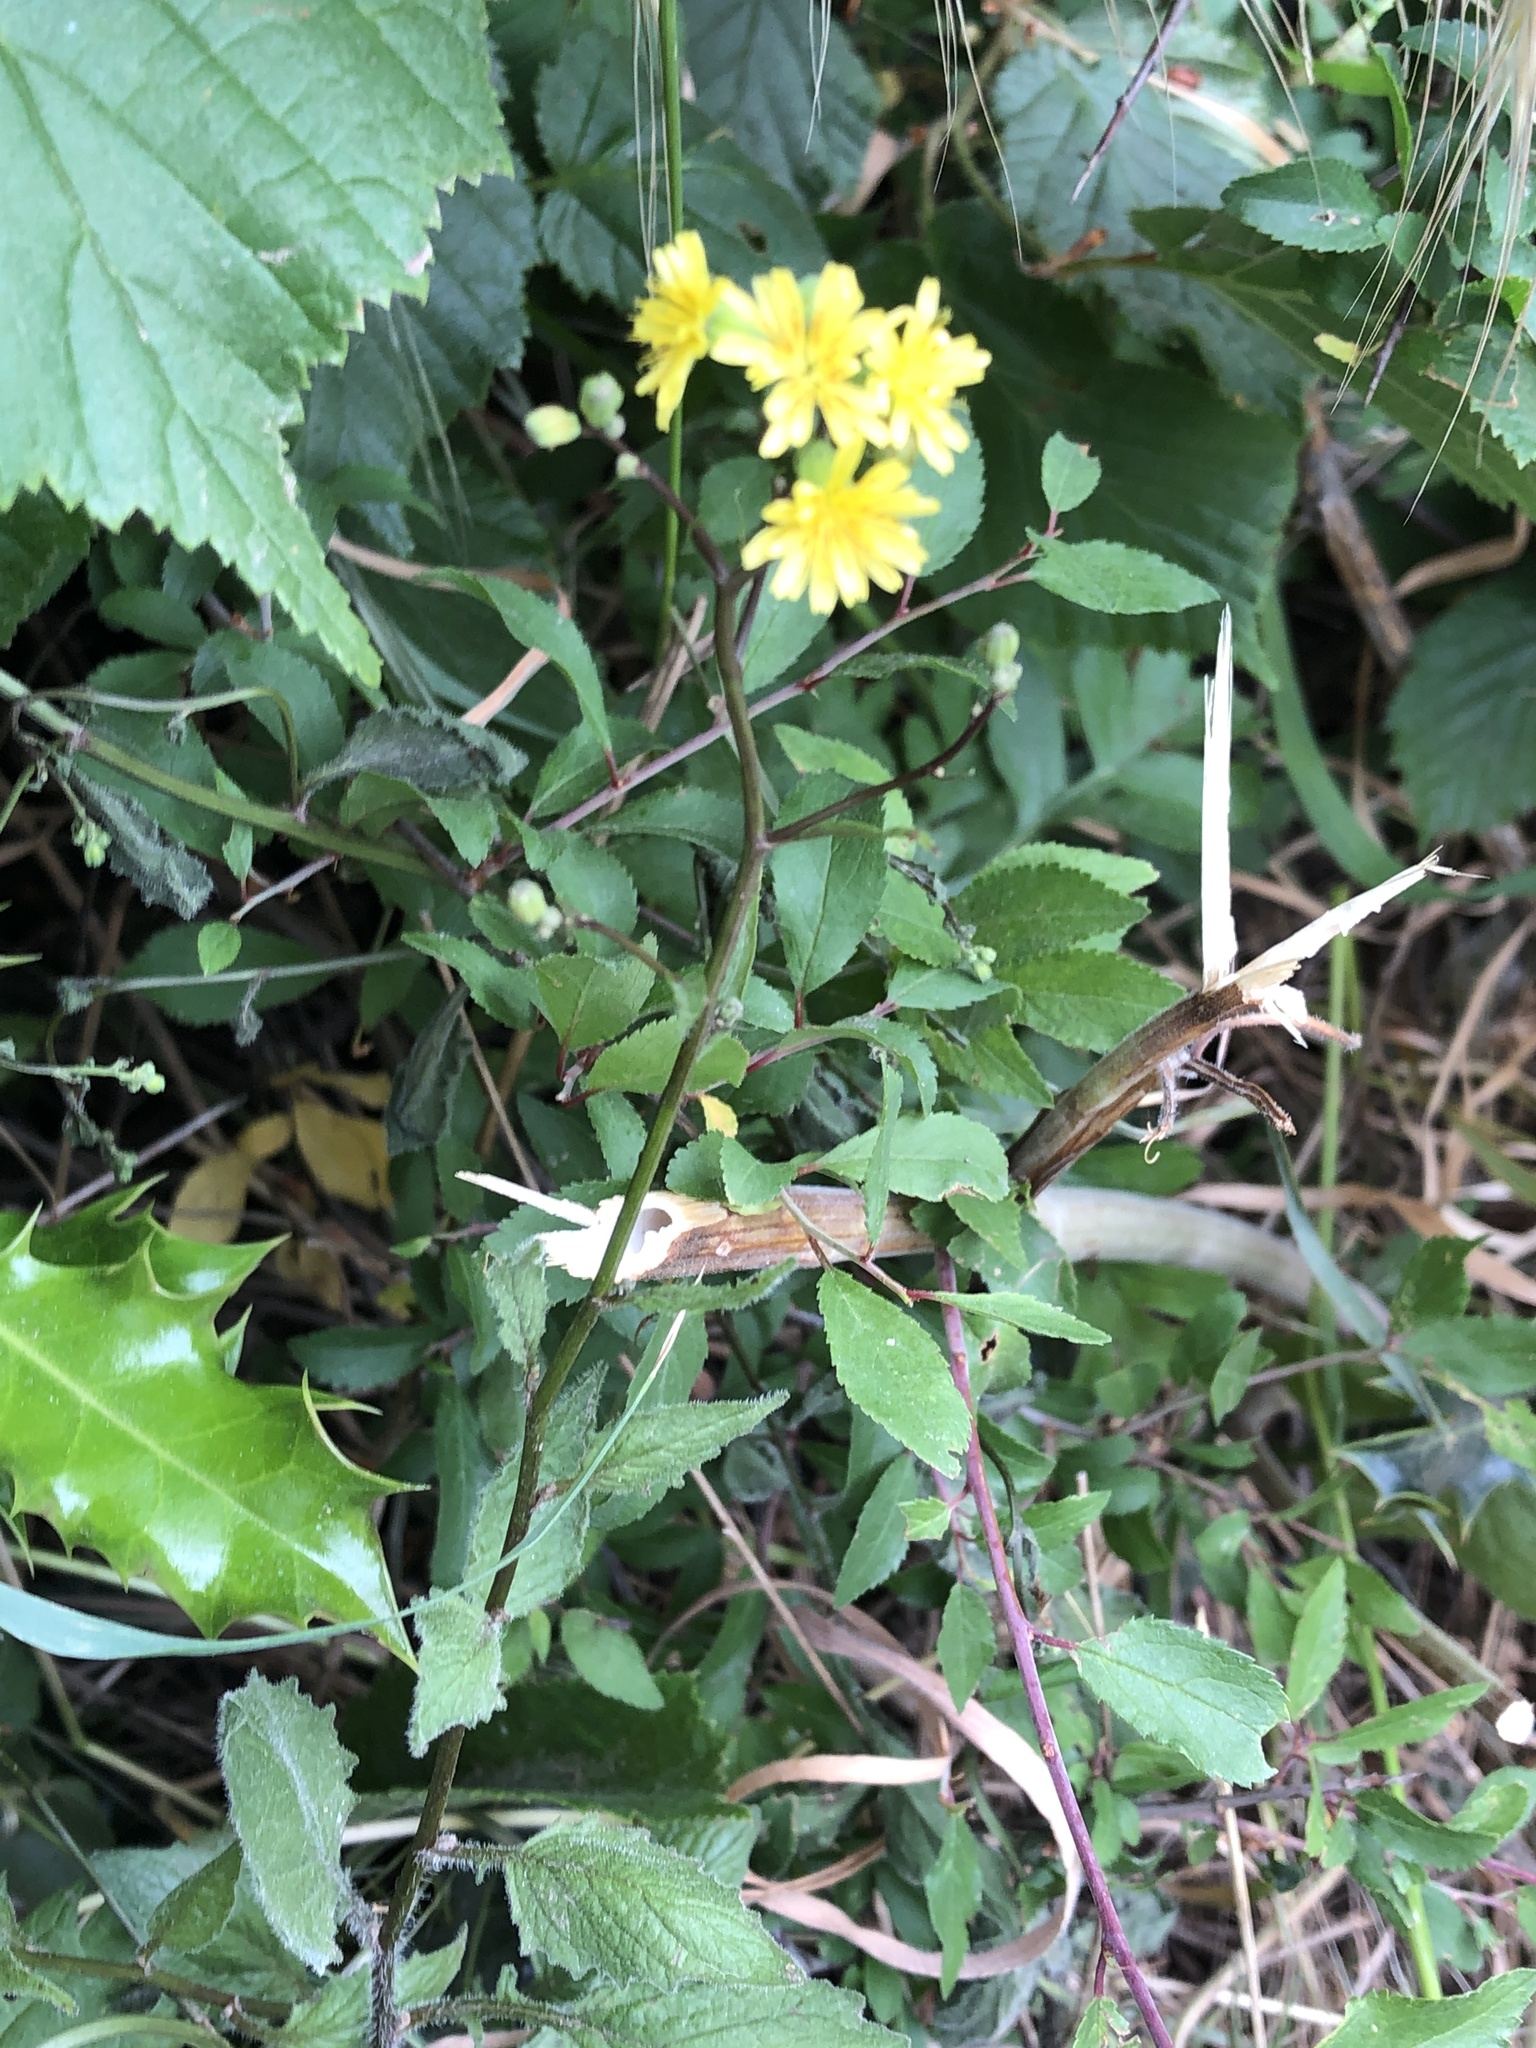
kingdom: Plantae
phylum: Tracheophyta
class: Magnoliopsida
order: Asterales
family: Asteraceae
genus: Lapsana
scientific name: Lapsana communis
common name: Nipplewort
